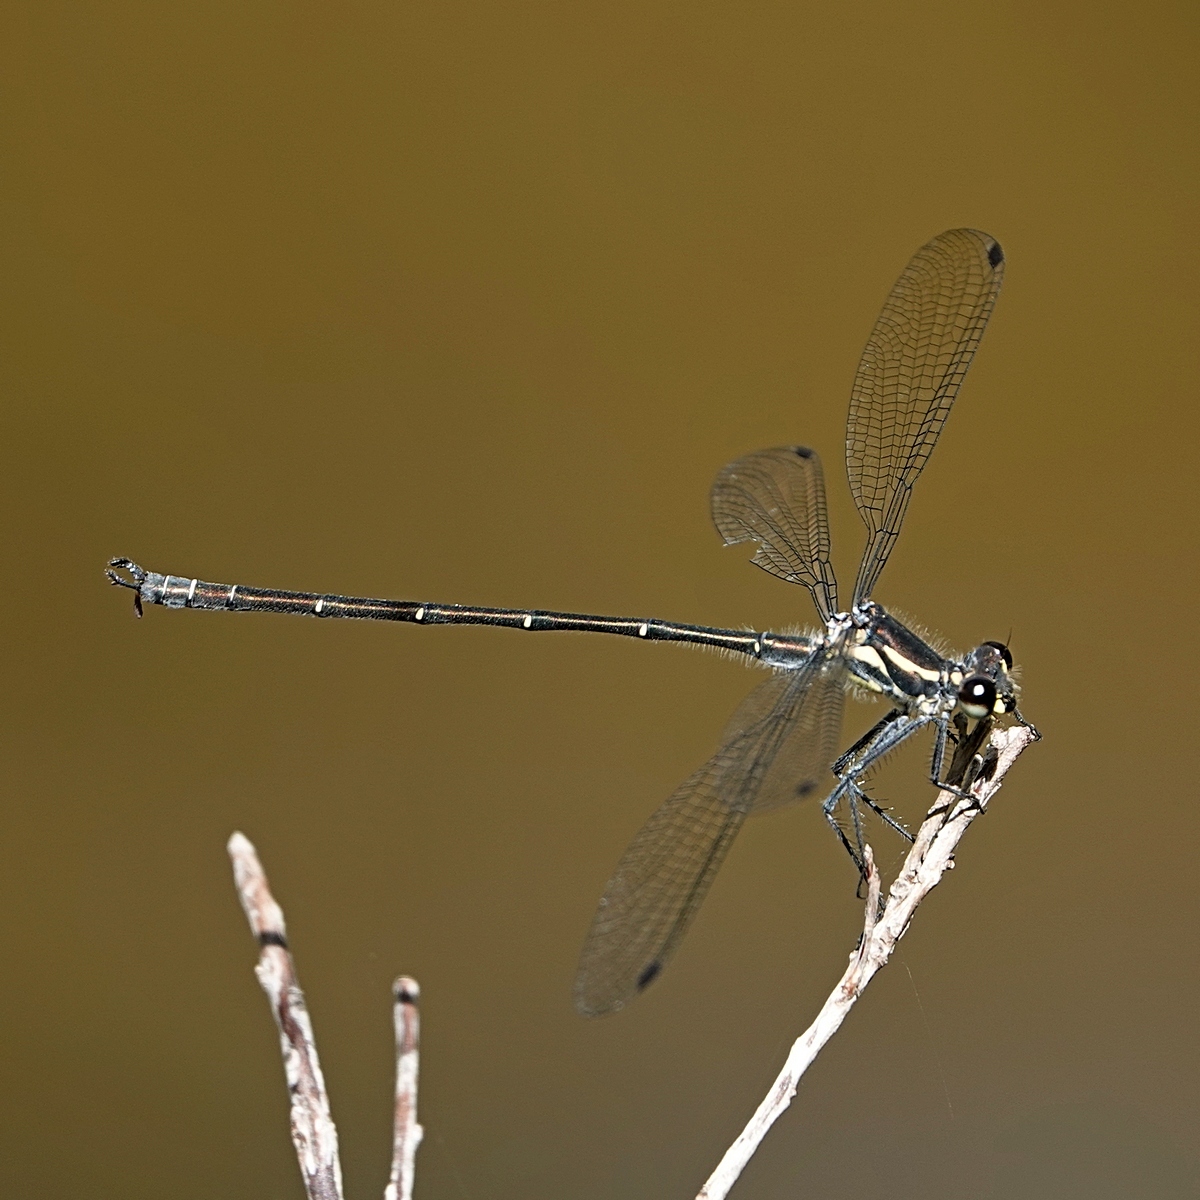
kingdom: Animalia
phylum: Arthropoda
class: Insecta
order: Odonata
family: Argiolestidae
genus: Austroargiolestes
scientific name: Austroargiolestes icteromelas
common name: Common flatwing
